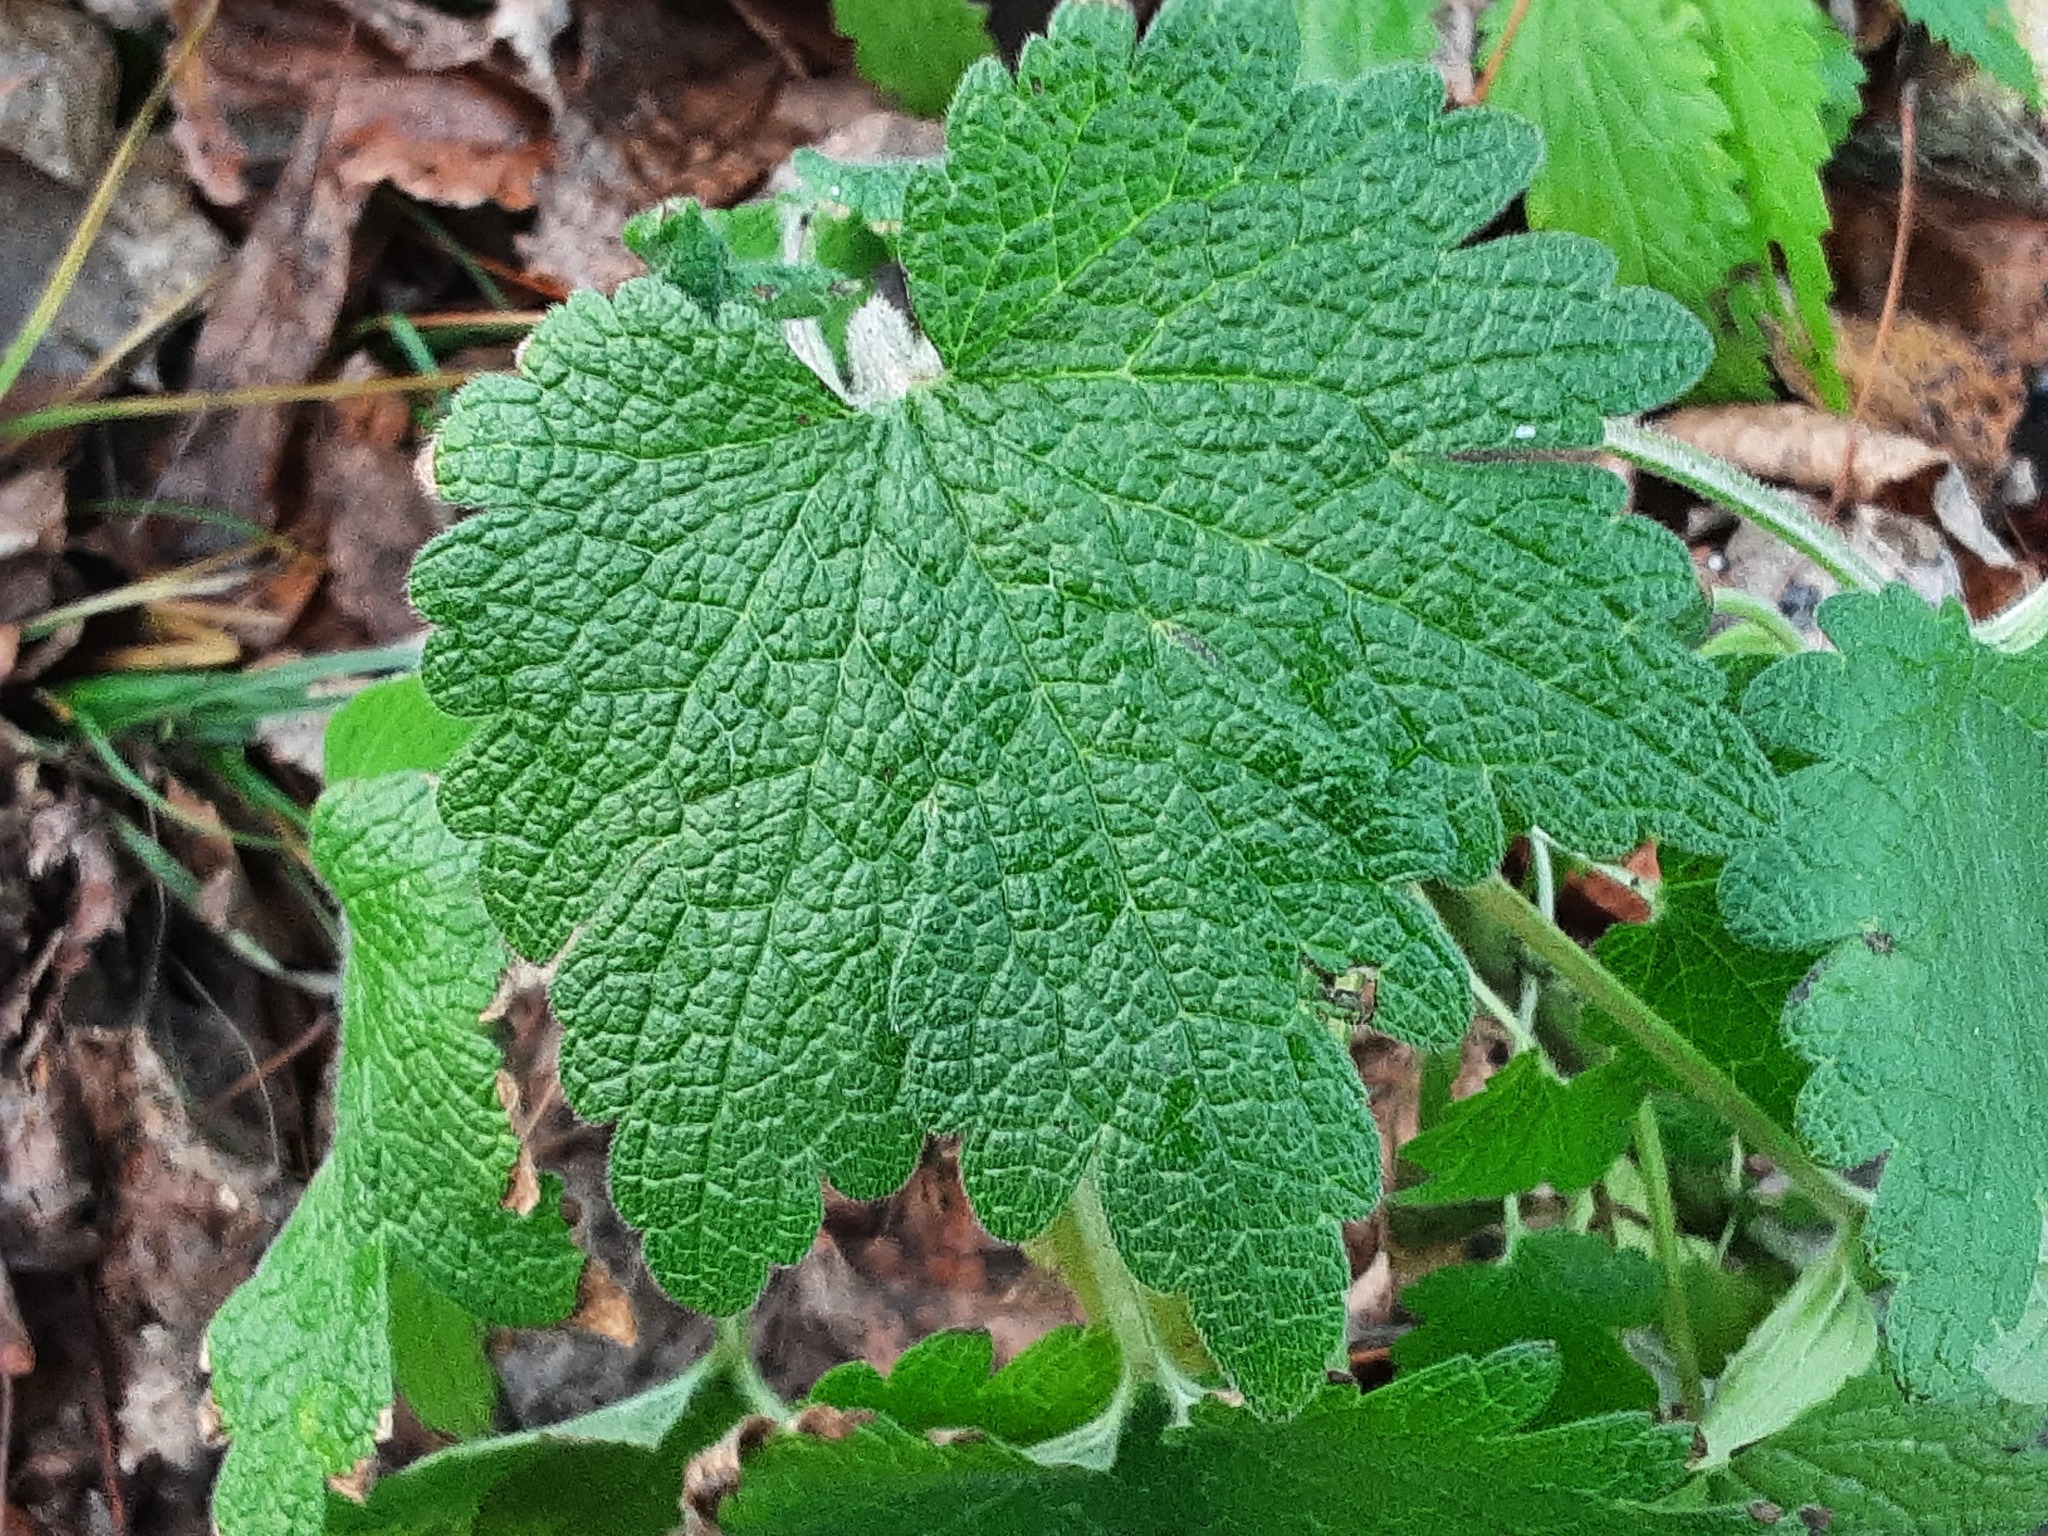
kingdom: Plantae
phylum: Tracheophyta
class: Magnoliopsida
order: Lamiales
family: Lamiaceae
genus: Leonurus
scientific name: Leonurus quinquelobatus
